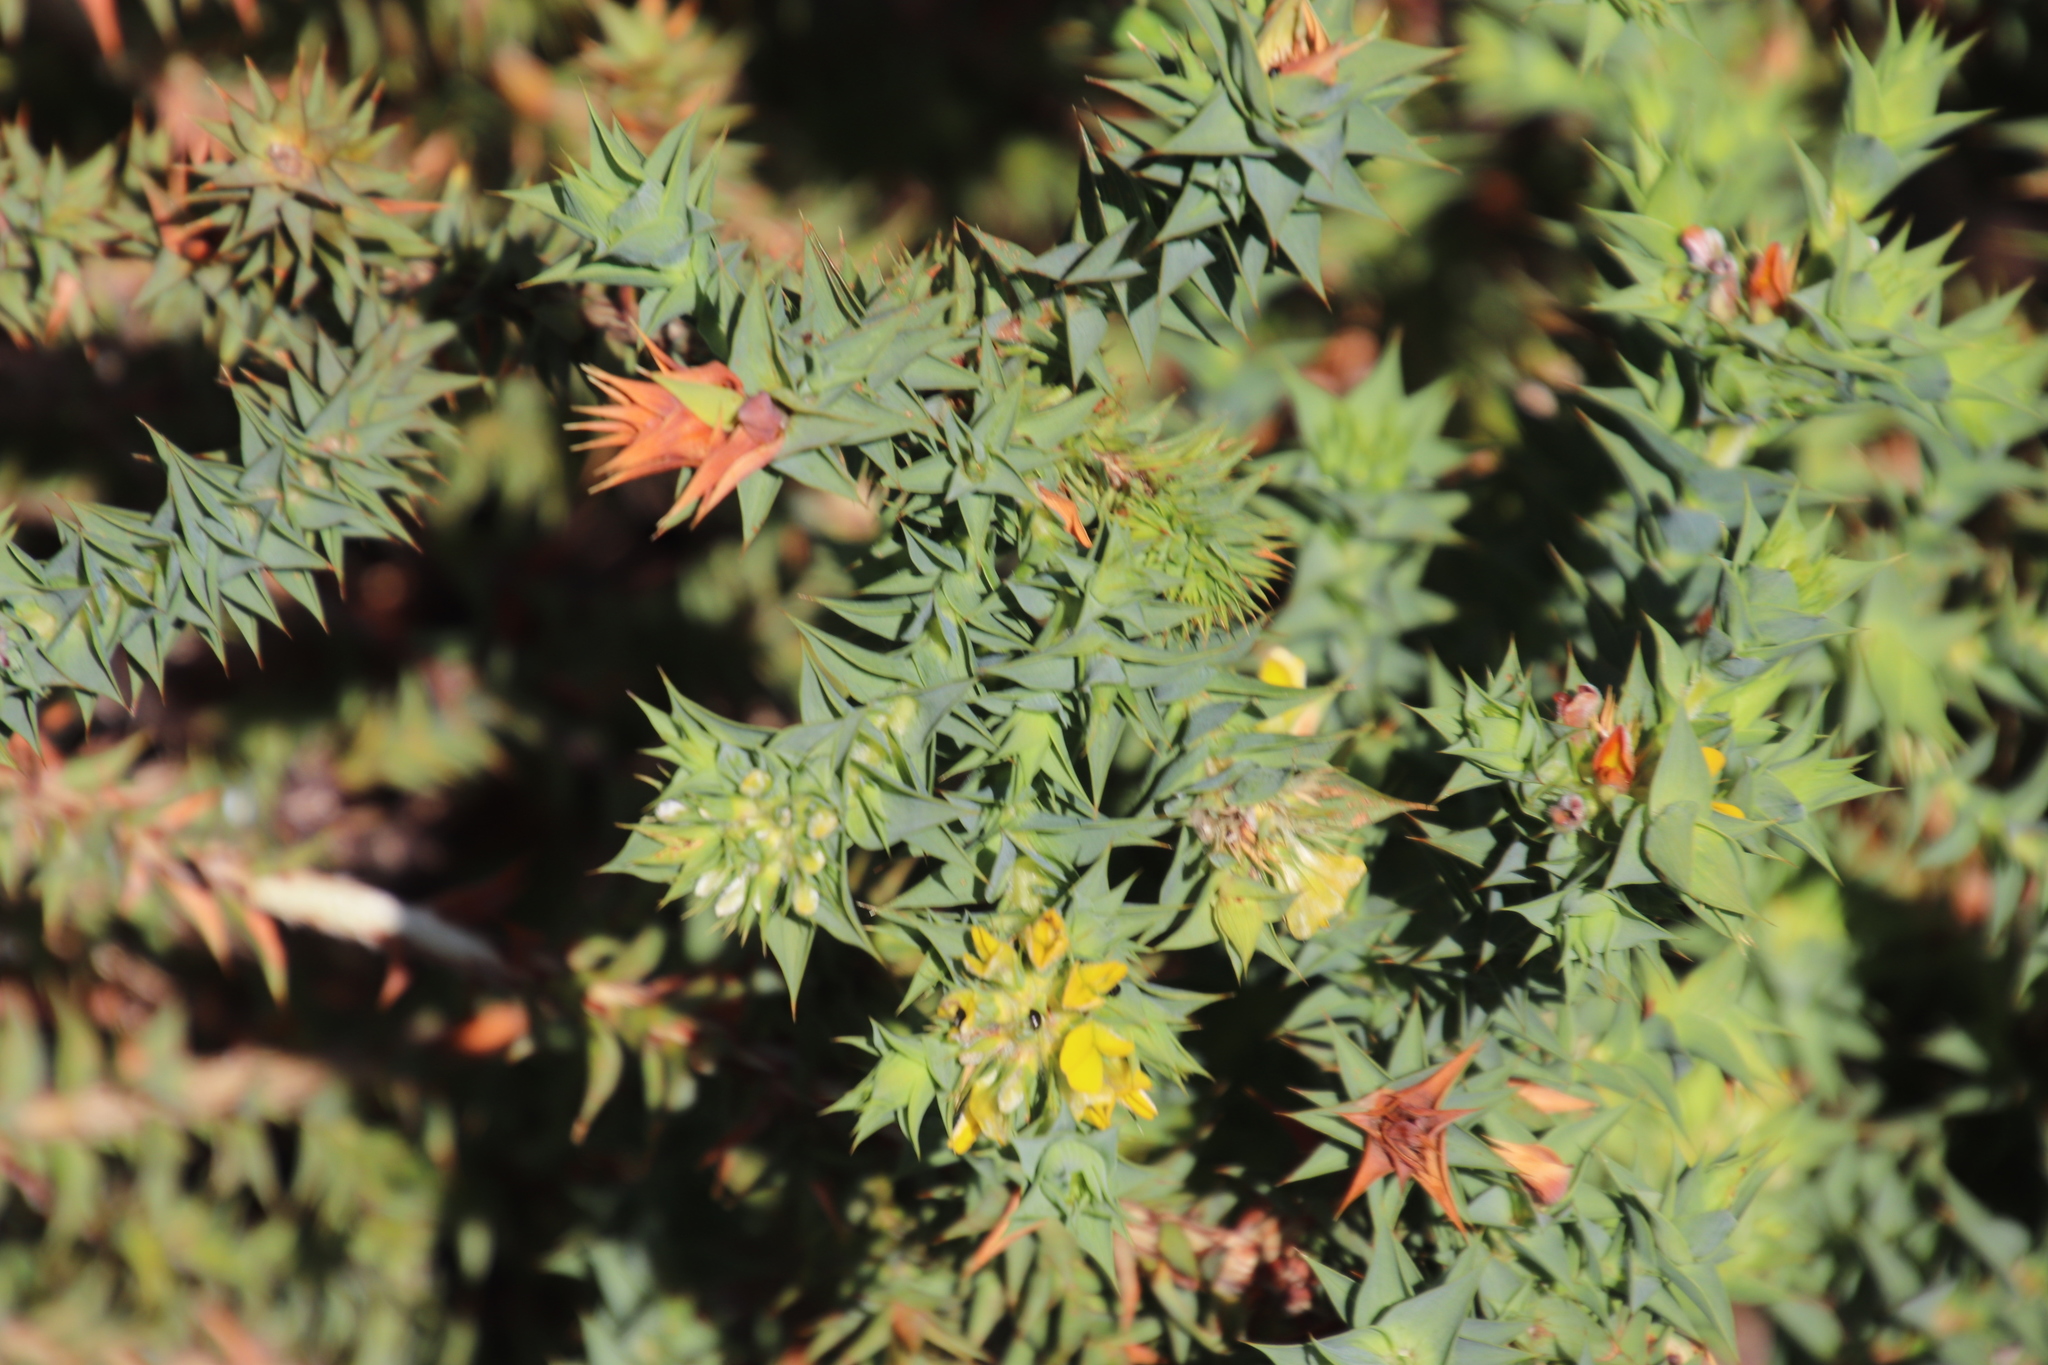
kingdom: Plantae
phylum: Tracheophyta
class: Magnoliopsida
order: Fabales
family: Fabaceae
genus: Aspalathus
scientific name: Aspalathus cordata
